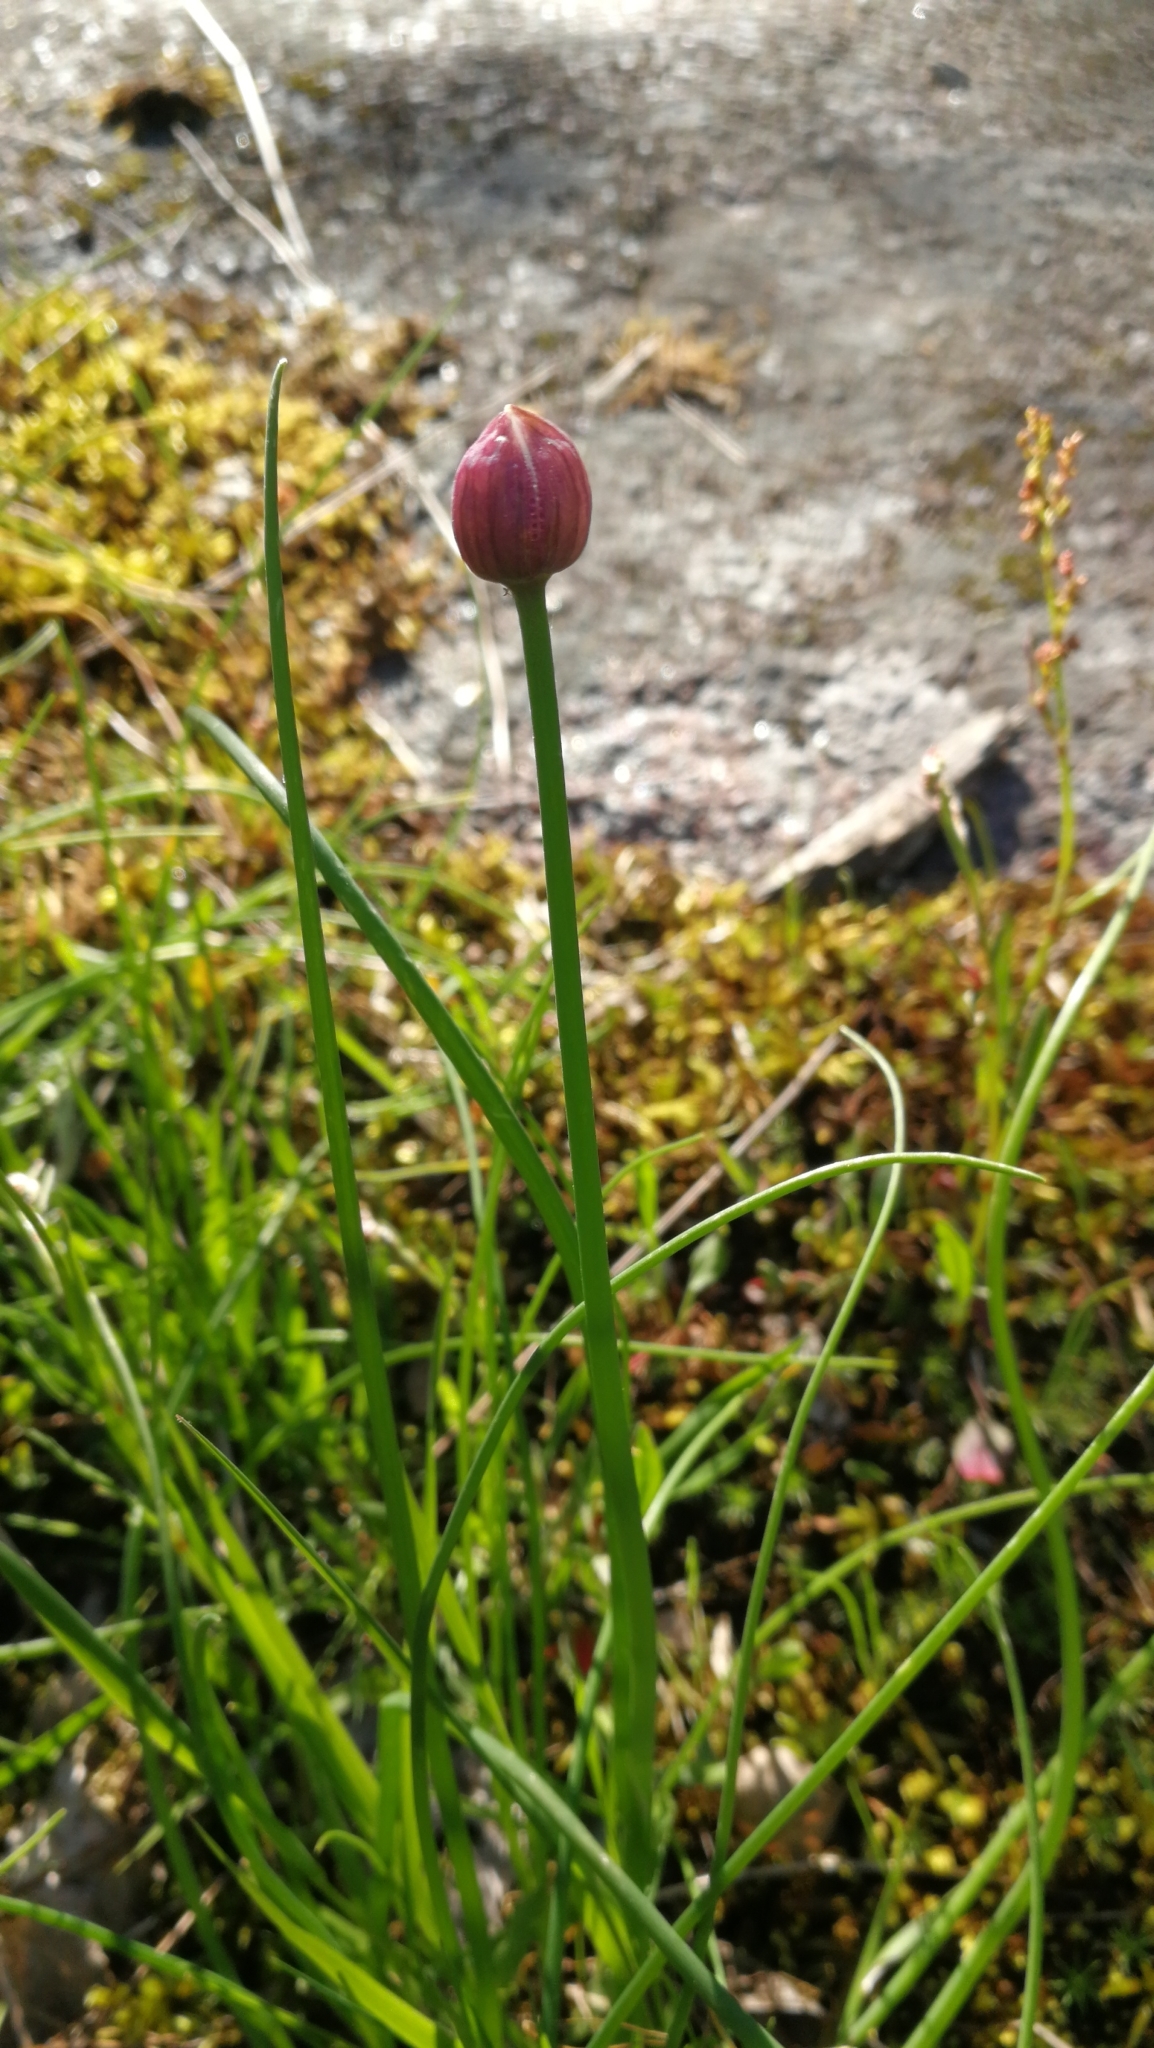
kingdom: Plantae
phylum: Tracheophyta
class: Liliopsida
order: Asparagales
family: Amaryllidaceae
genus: Allium
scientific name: Allium schoenoprasum
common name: Chives
